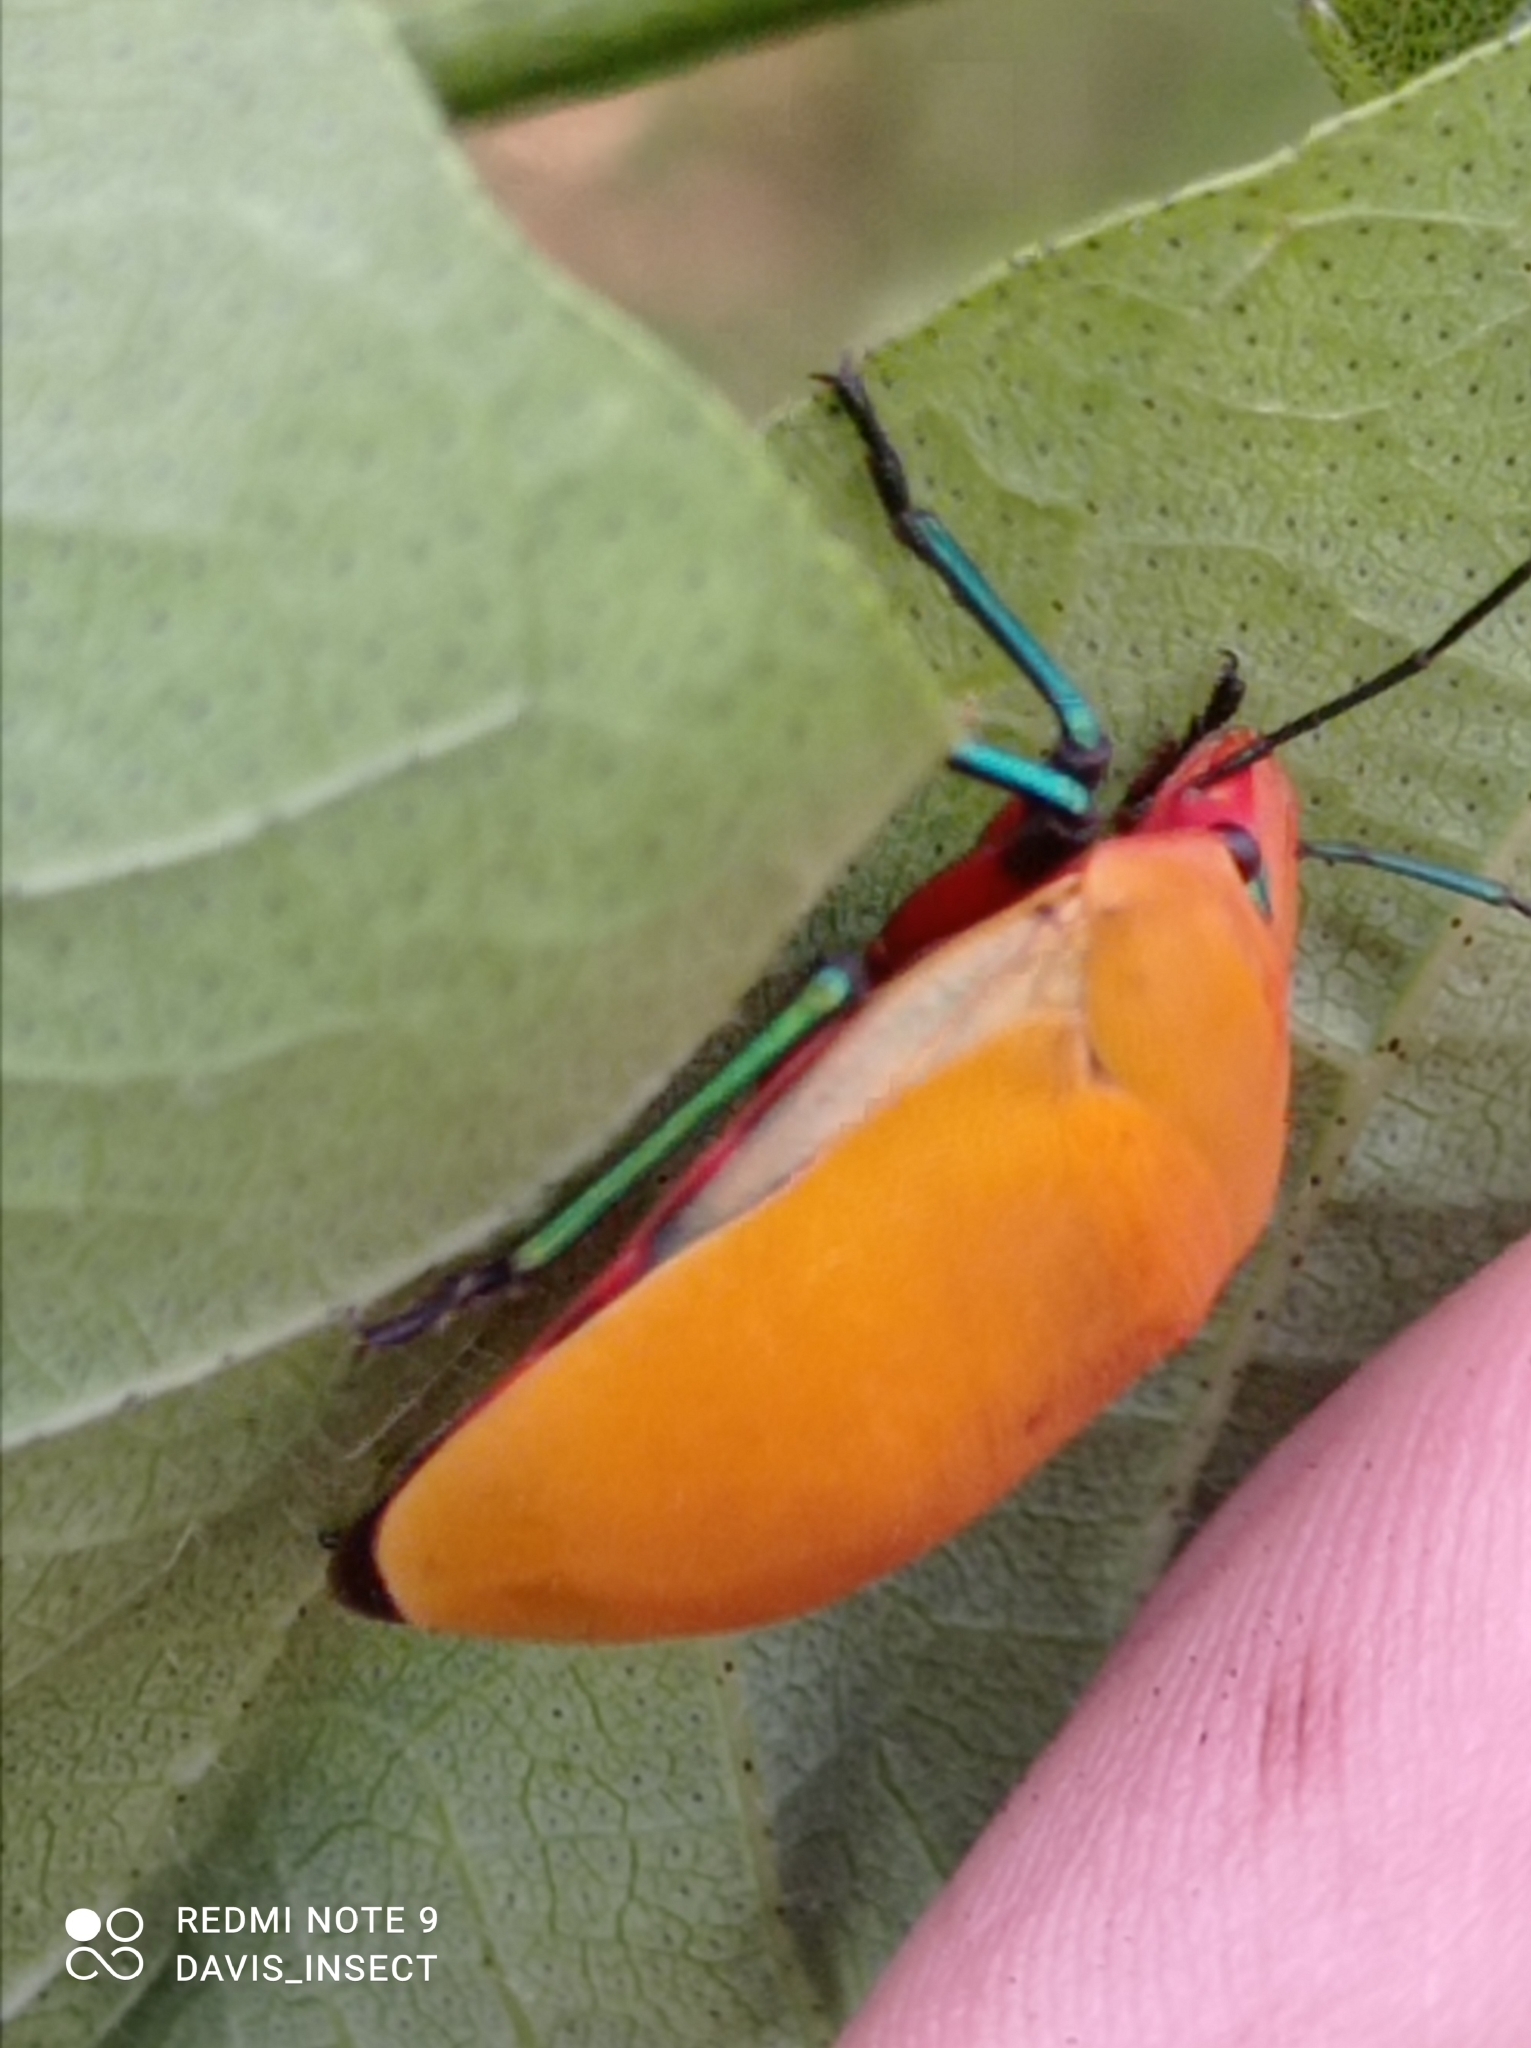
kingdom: Animalia
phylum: Arthropoda
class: Insecta
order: Hemiptera
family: Scutelleridae
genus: Tectocoris
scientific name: Tectocoris diophthalmus
